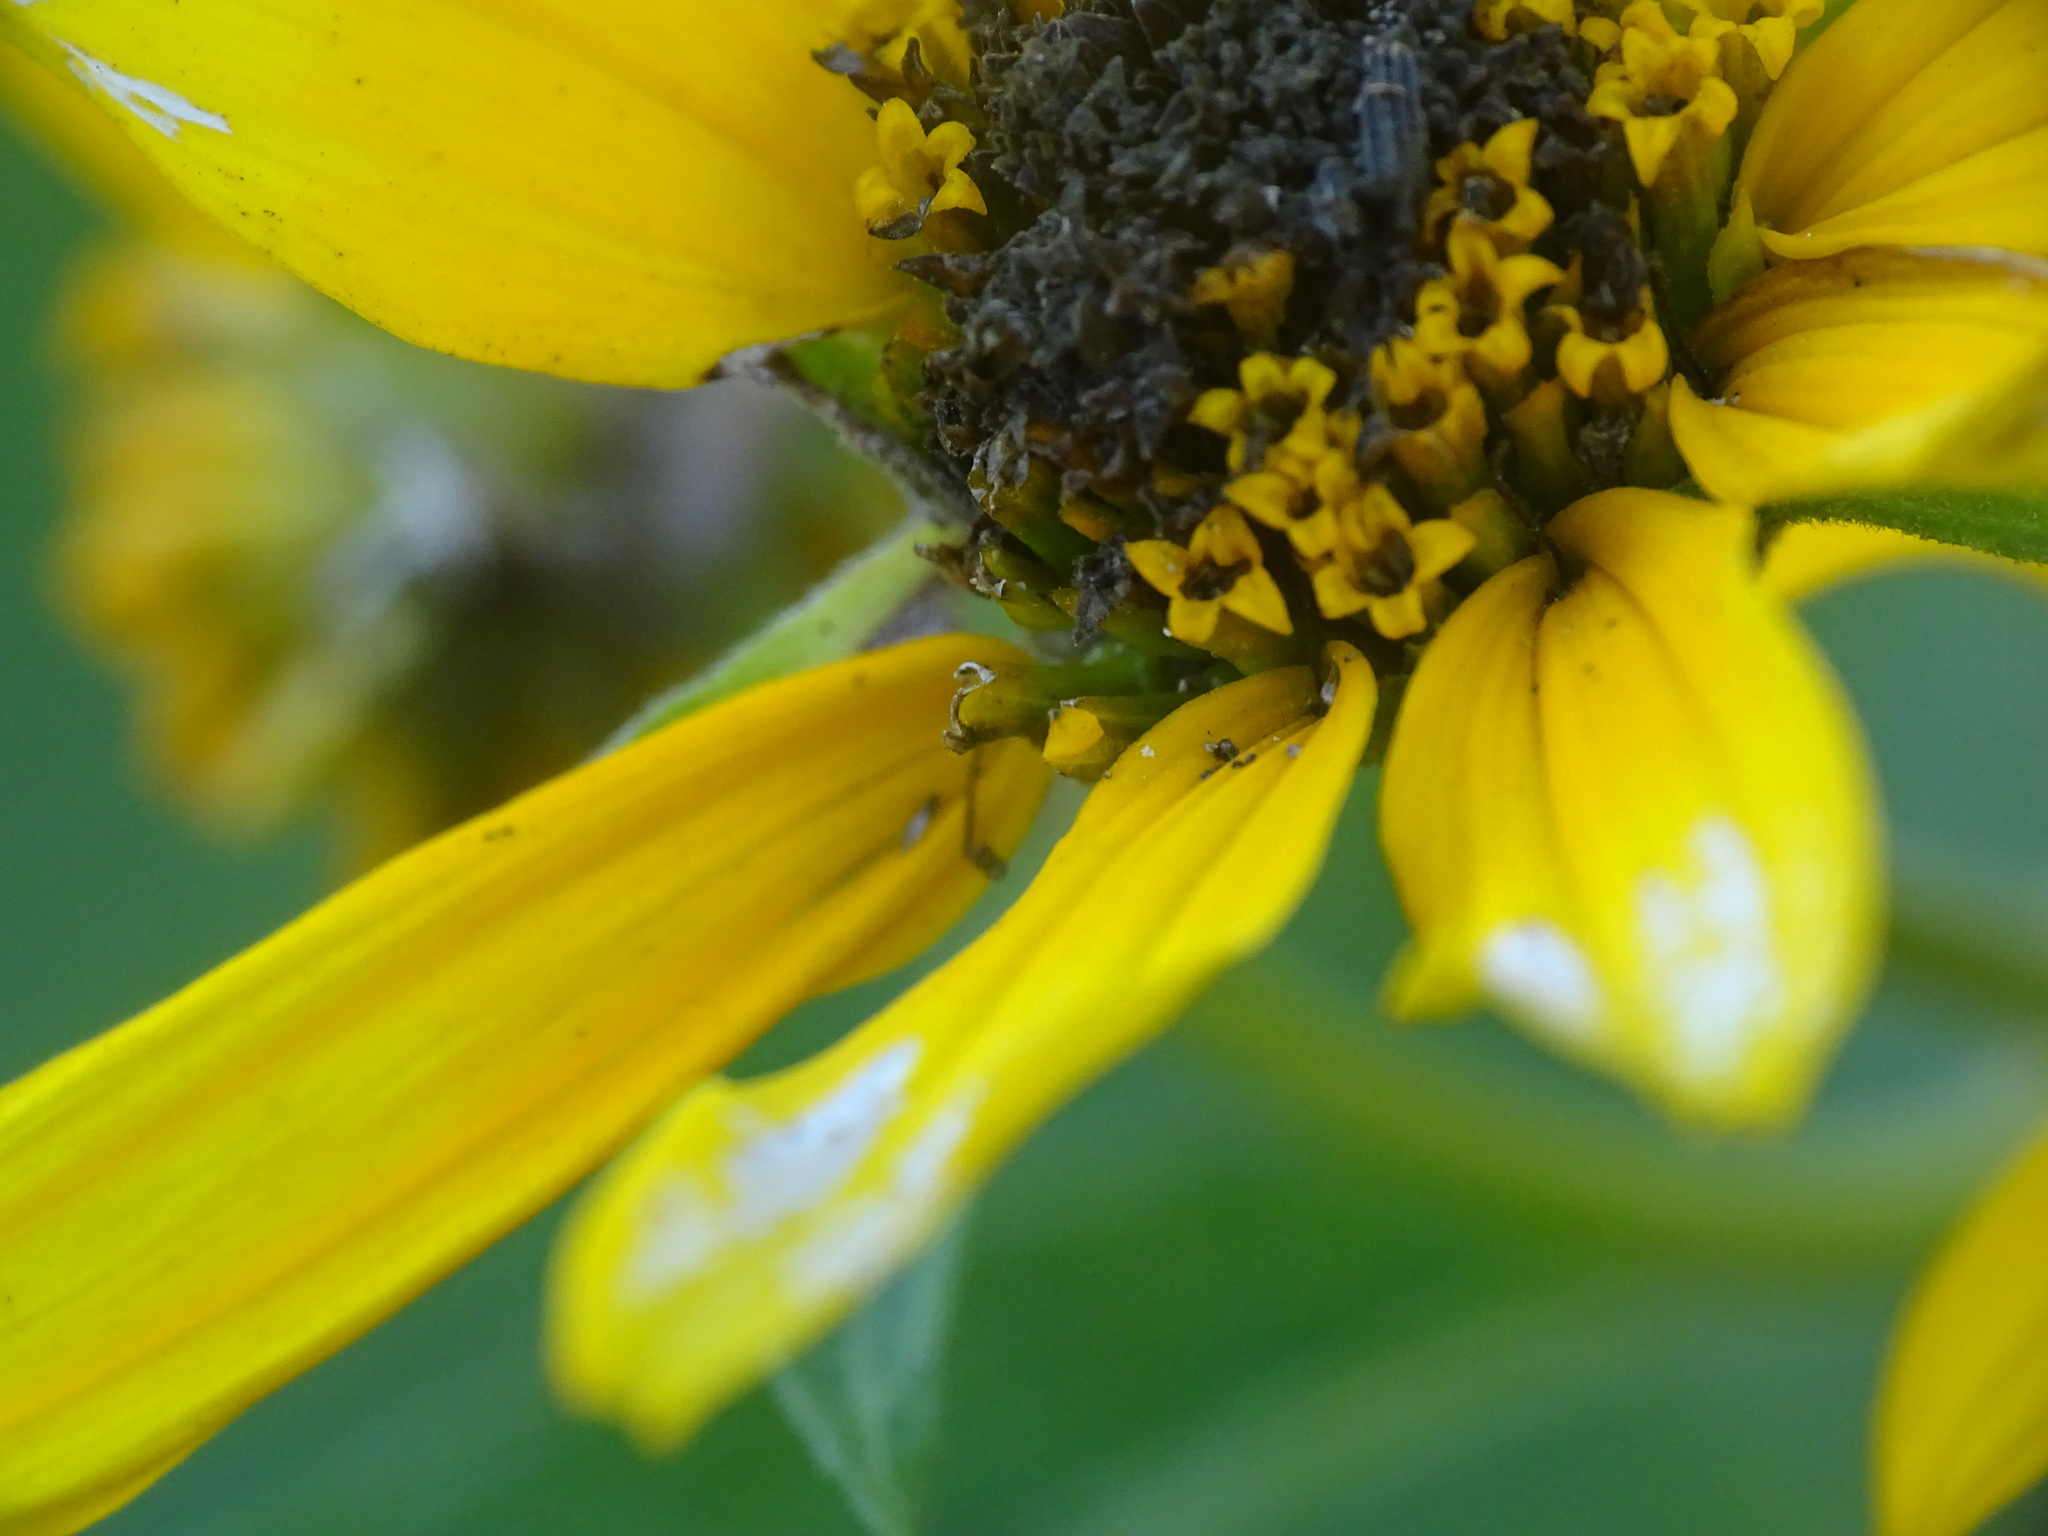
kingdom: Plantae
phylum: Tracheophyta
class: Magnoliopsida
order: Asterales
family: Asteraceae
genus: Heliopsis
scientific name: Heliopsis helianthoides
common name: False sunflower
